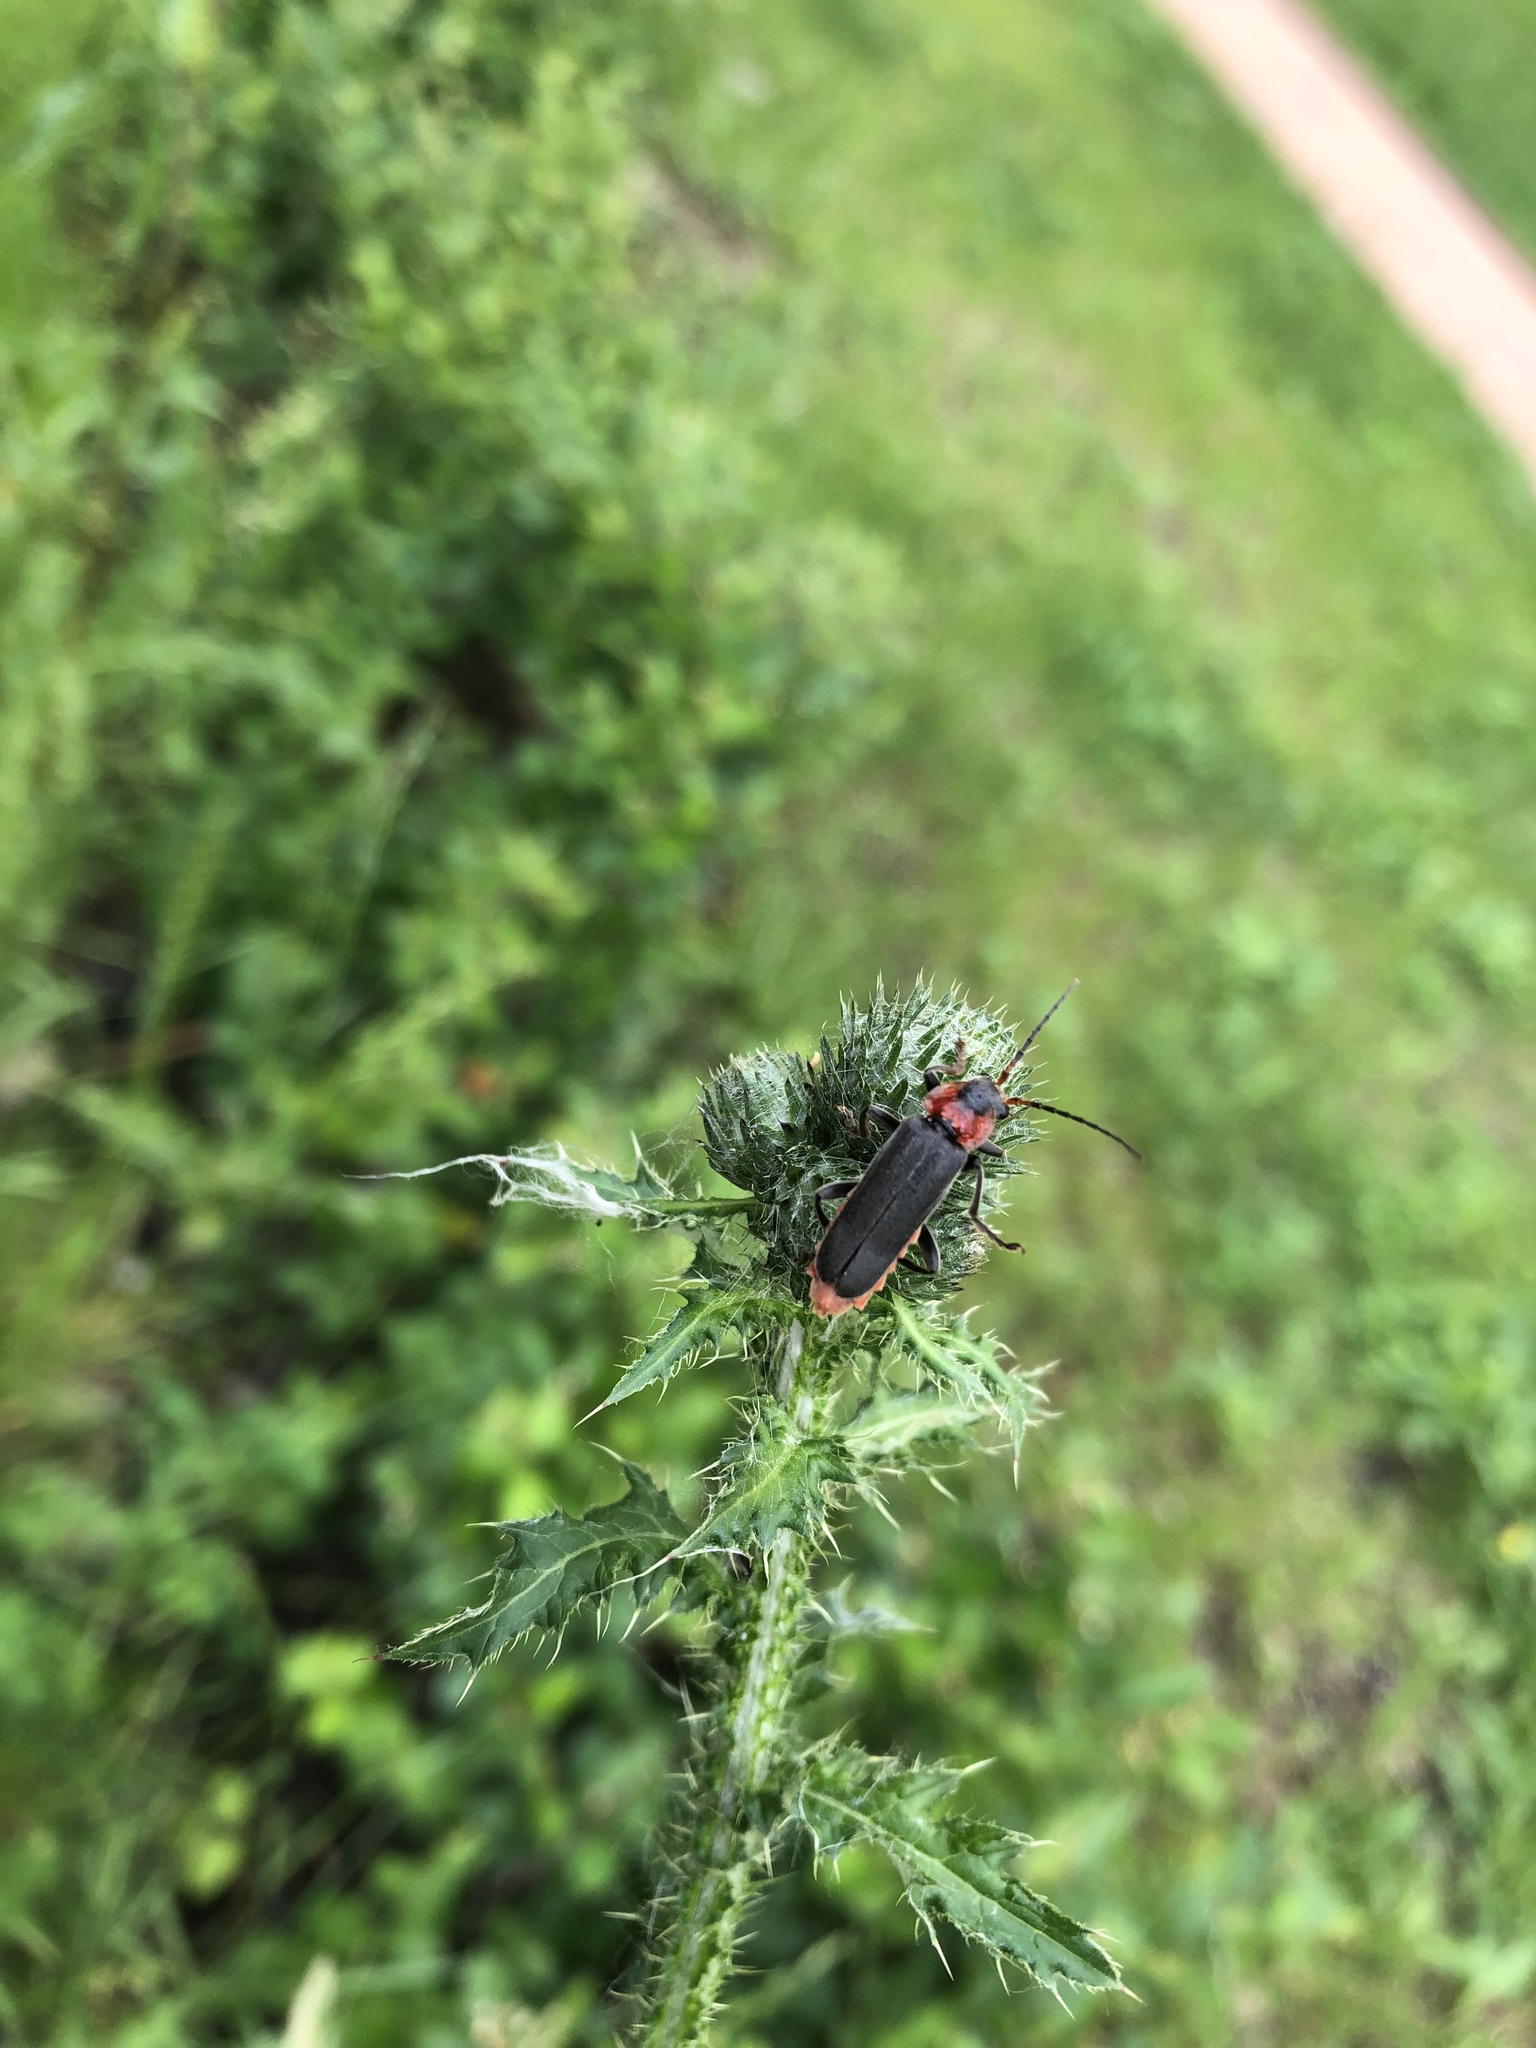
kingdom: Animalia
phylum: Arthropoda
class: Insecta
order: Coleoptera
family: Cantharidae
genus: Cantharis
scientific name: Cantharis fusca
